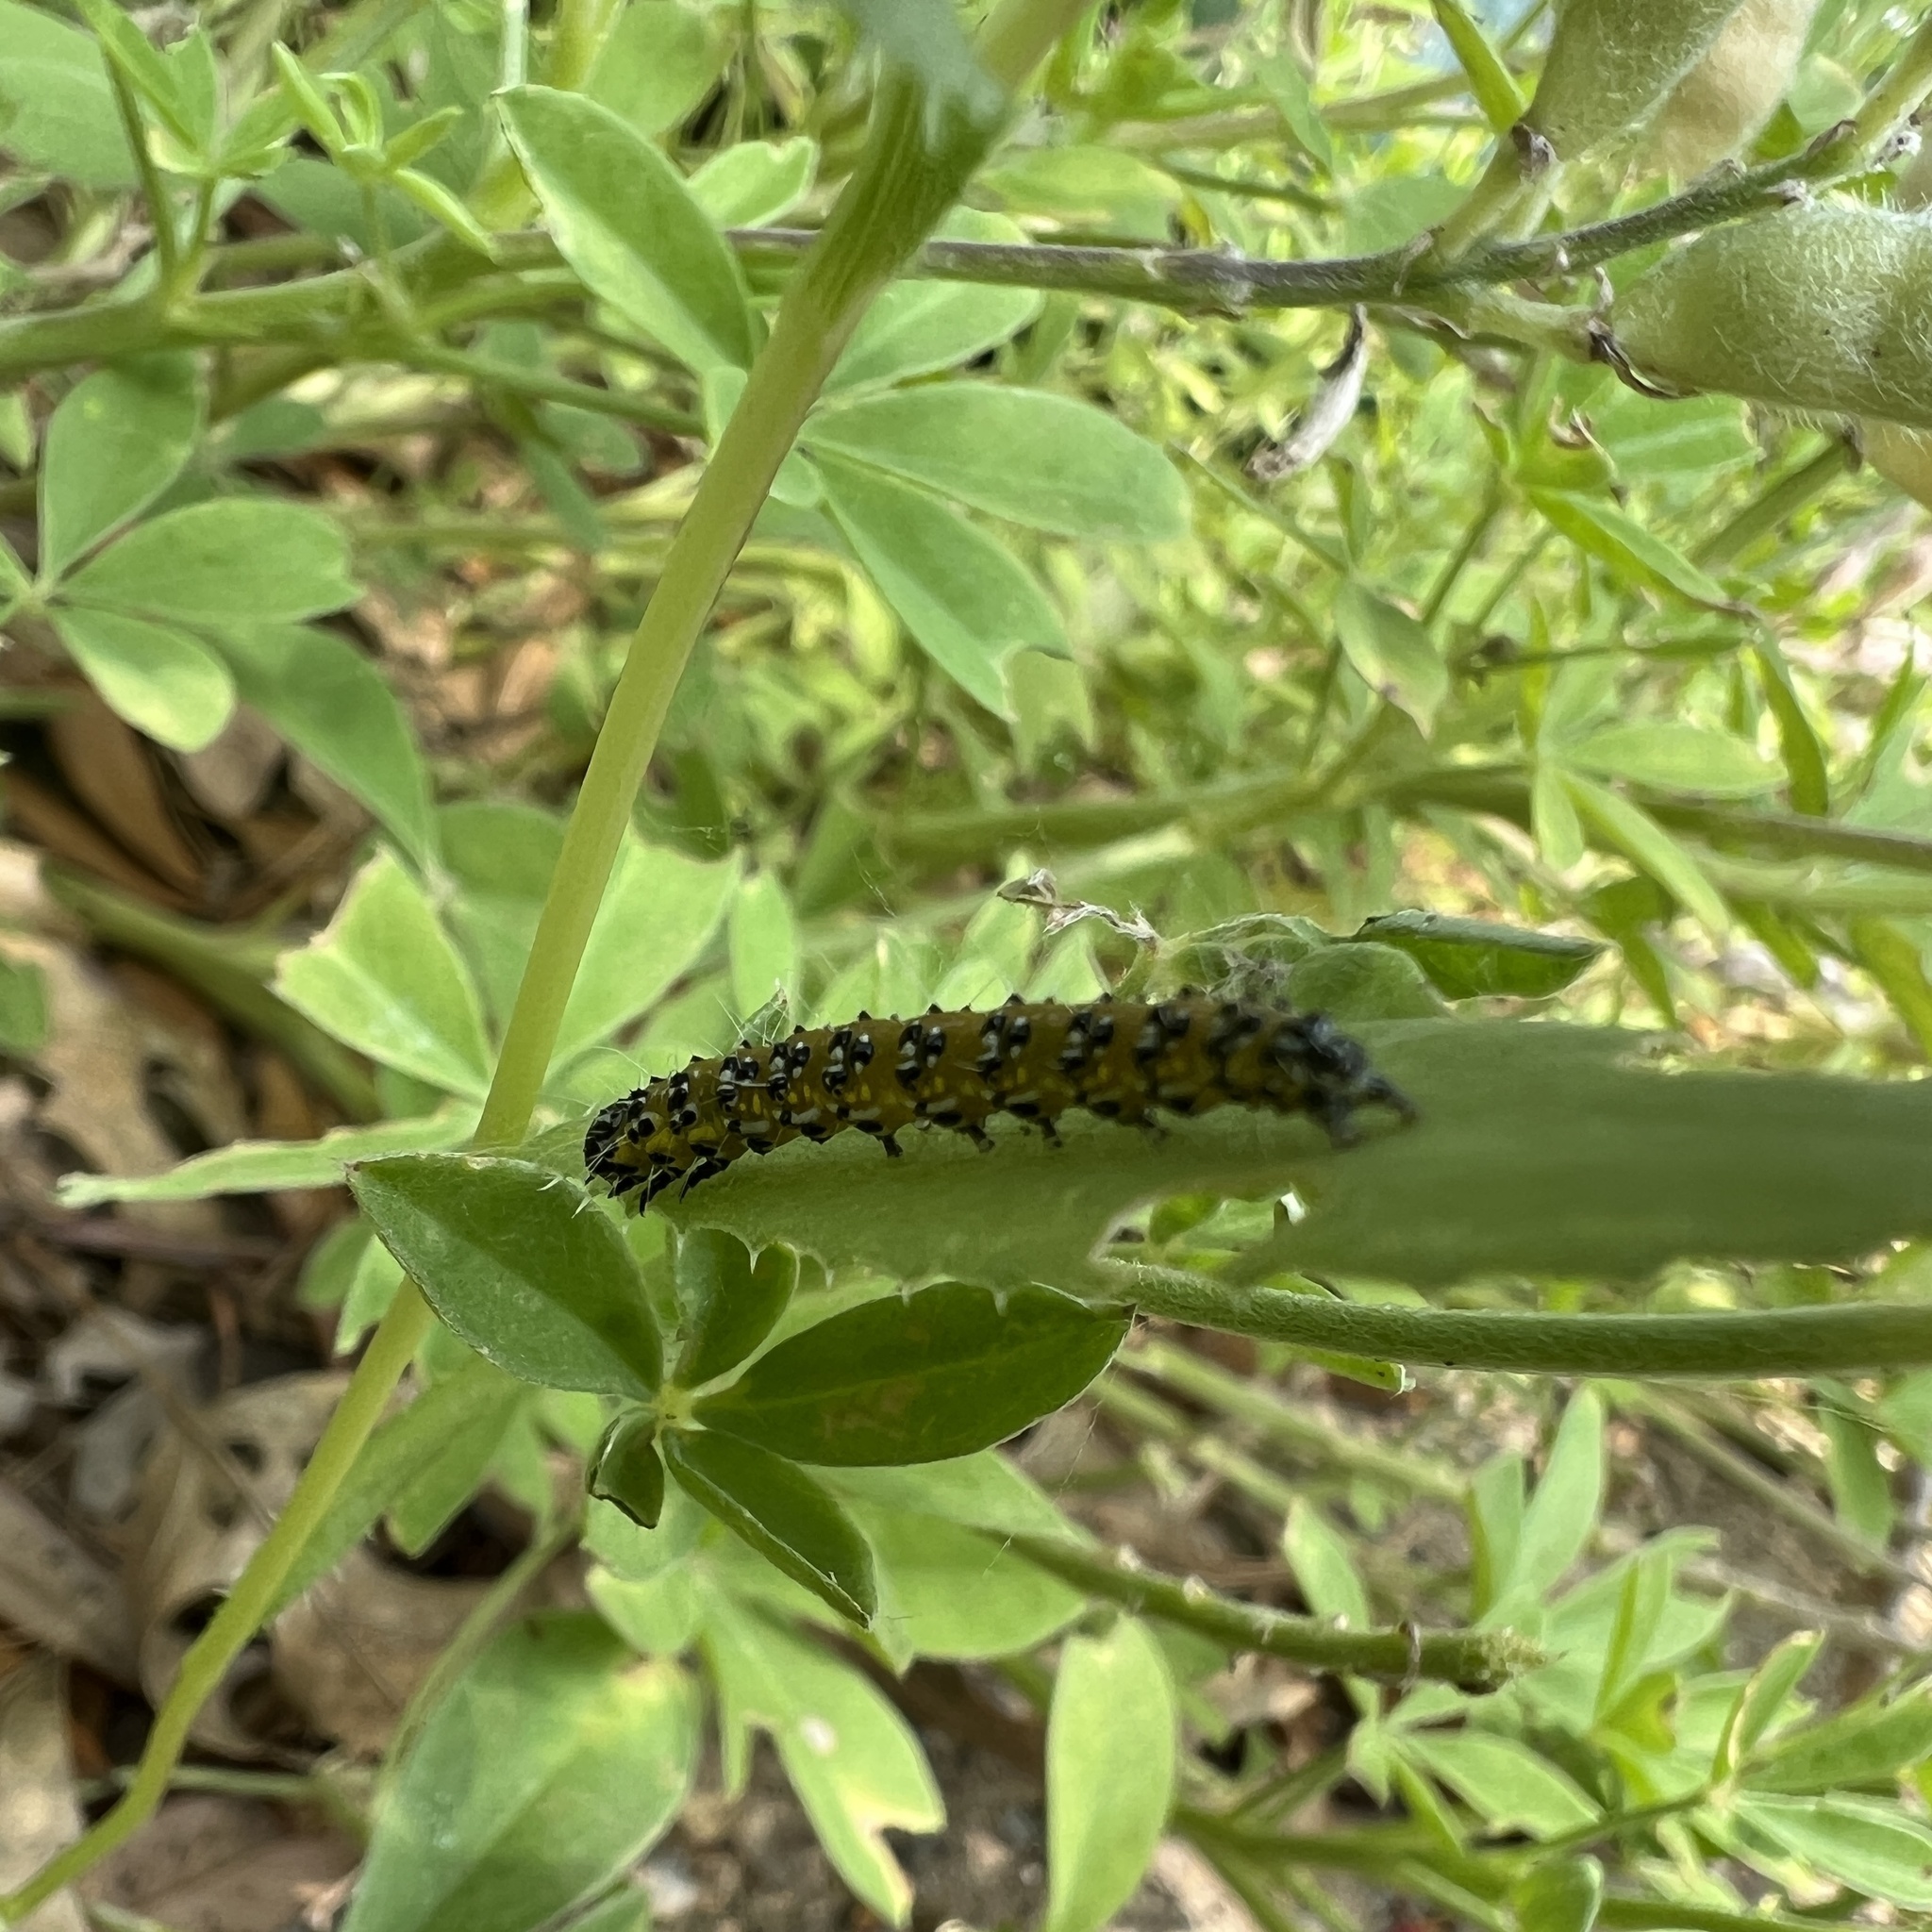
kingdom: Animalia
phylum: Arthropoda
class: Insecta
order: Lepidoptera
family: Crambidae
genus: Uresiphita
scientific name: Uresiphita reversalis
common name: Genista broom moth
